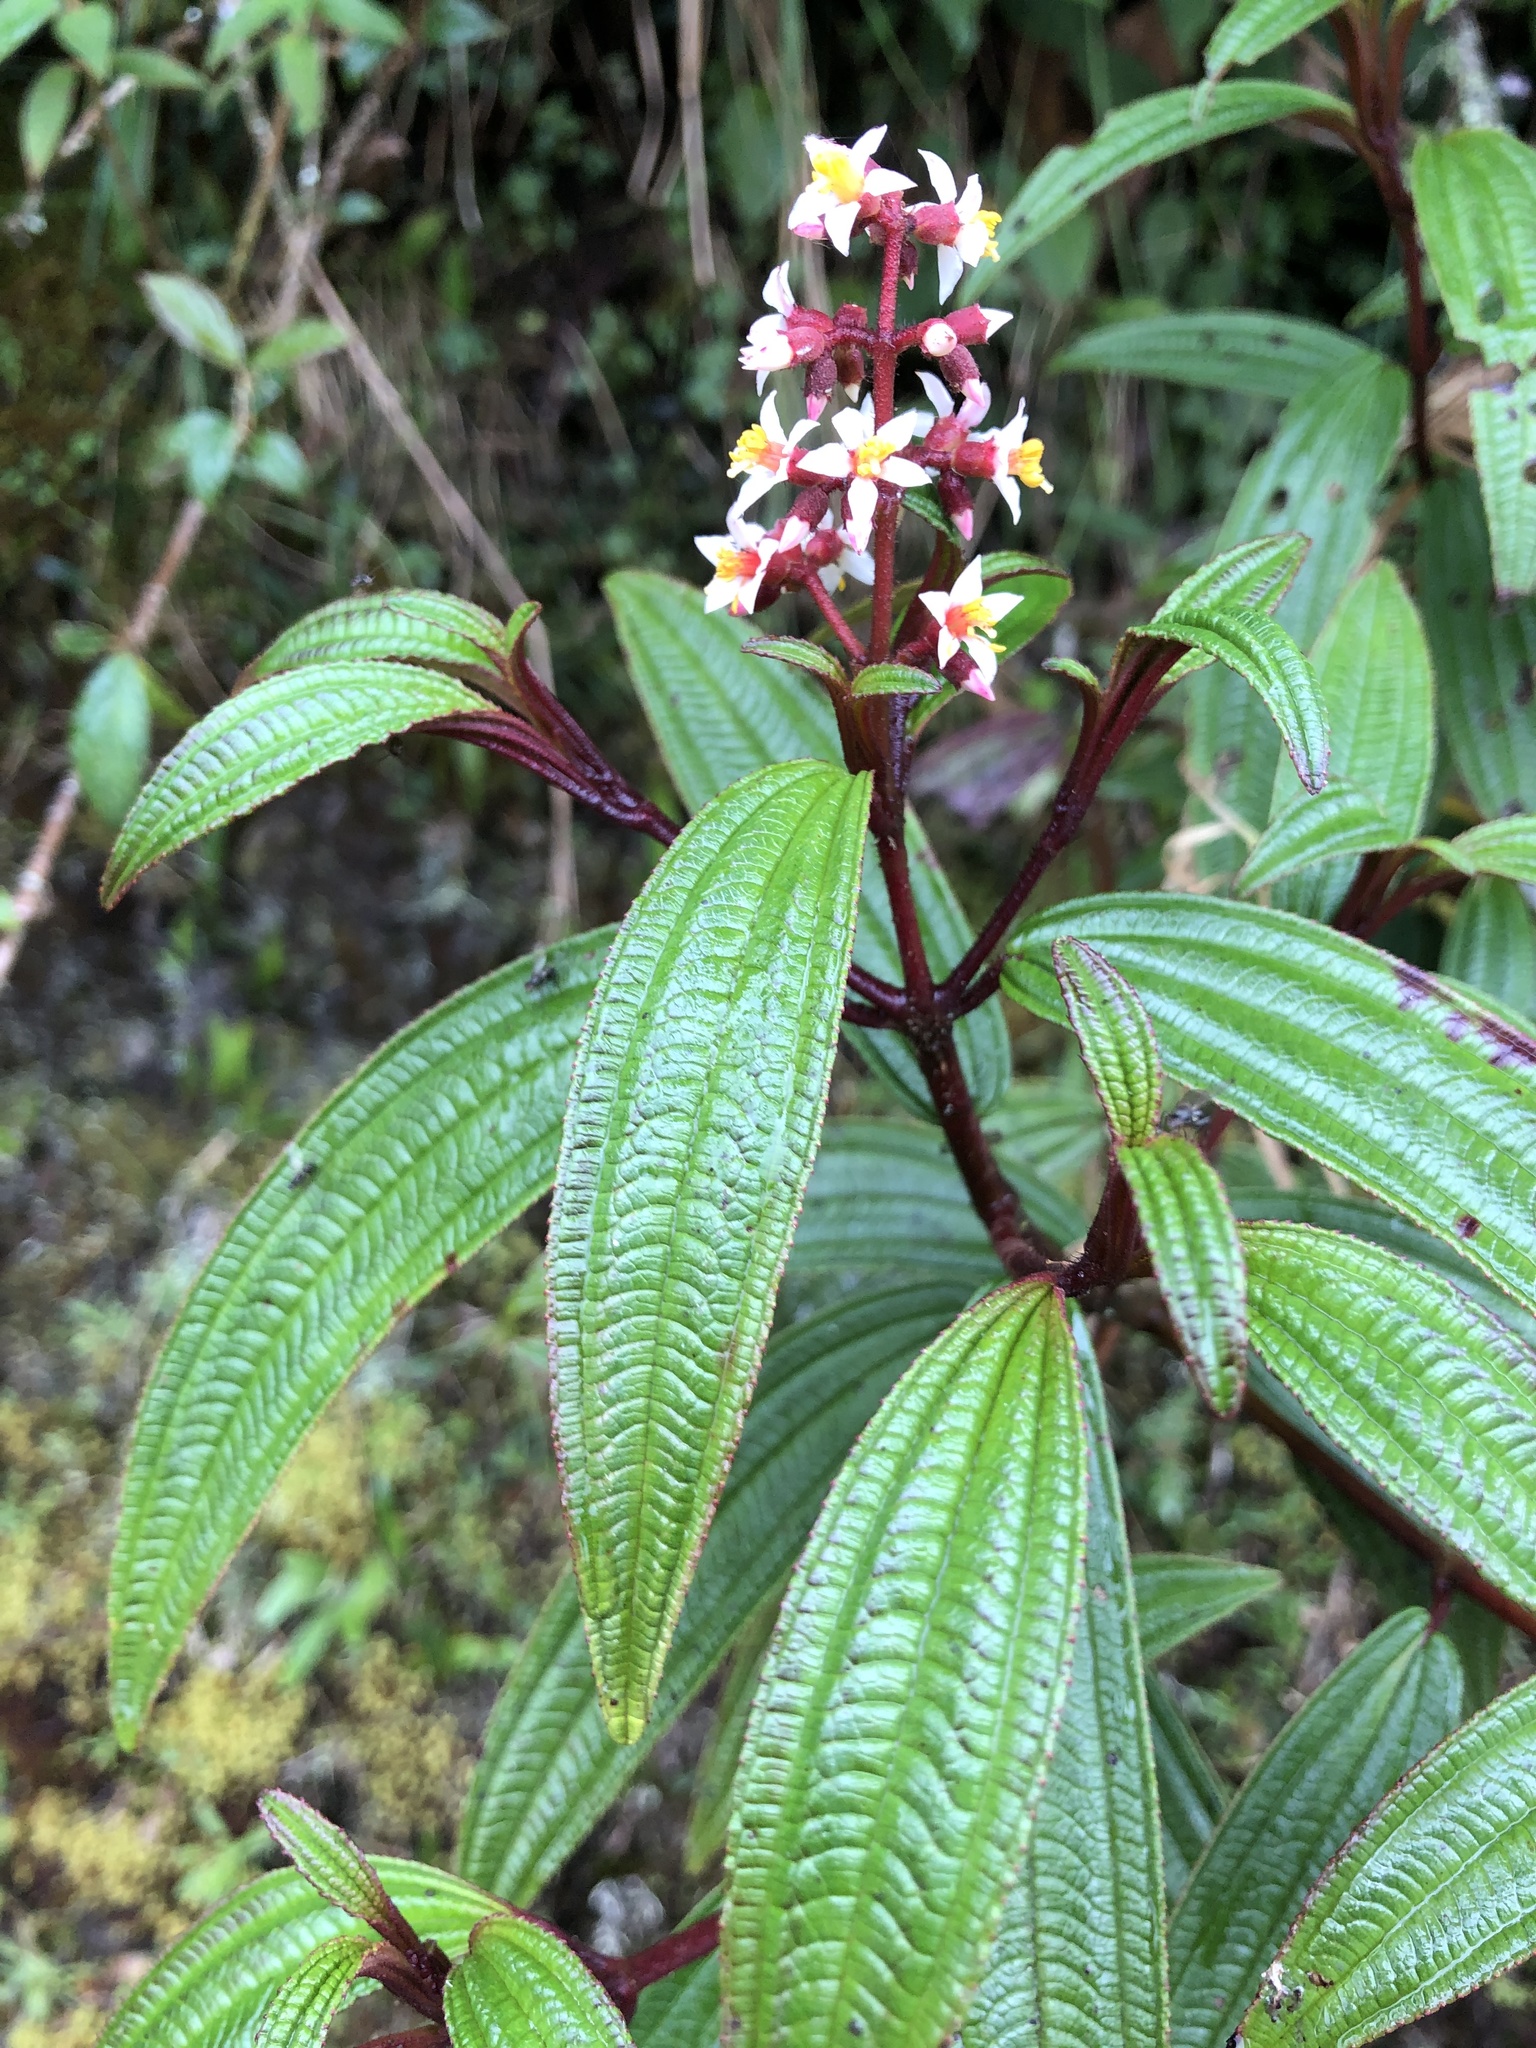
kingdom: Plantae
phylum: Tracheophyta
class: Magnoliopsida
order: Myrtales
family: Melastomataceae
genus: Miconia
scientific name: Miconia nervosissima
